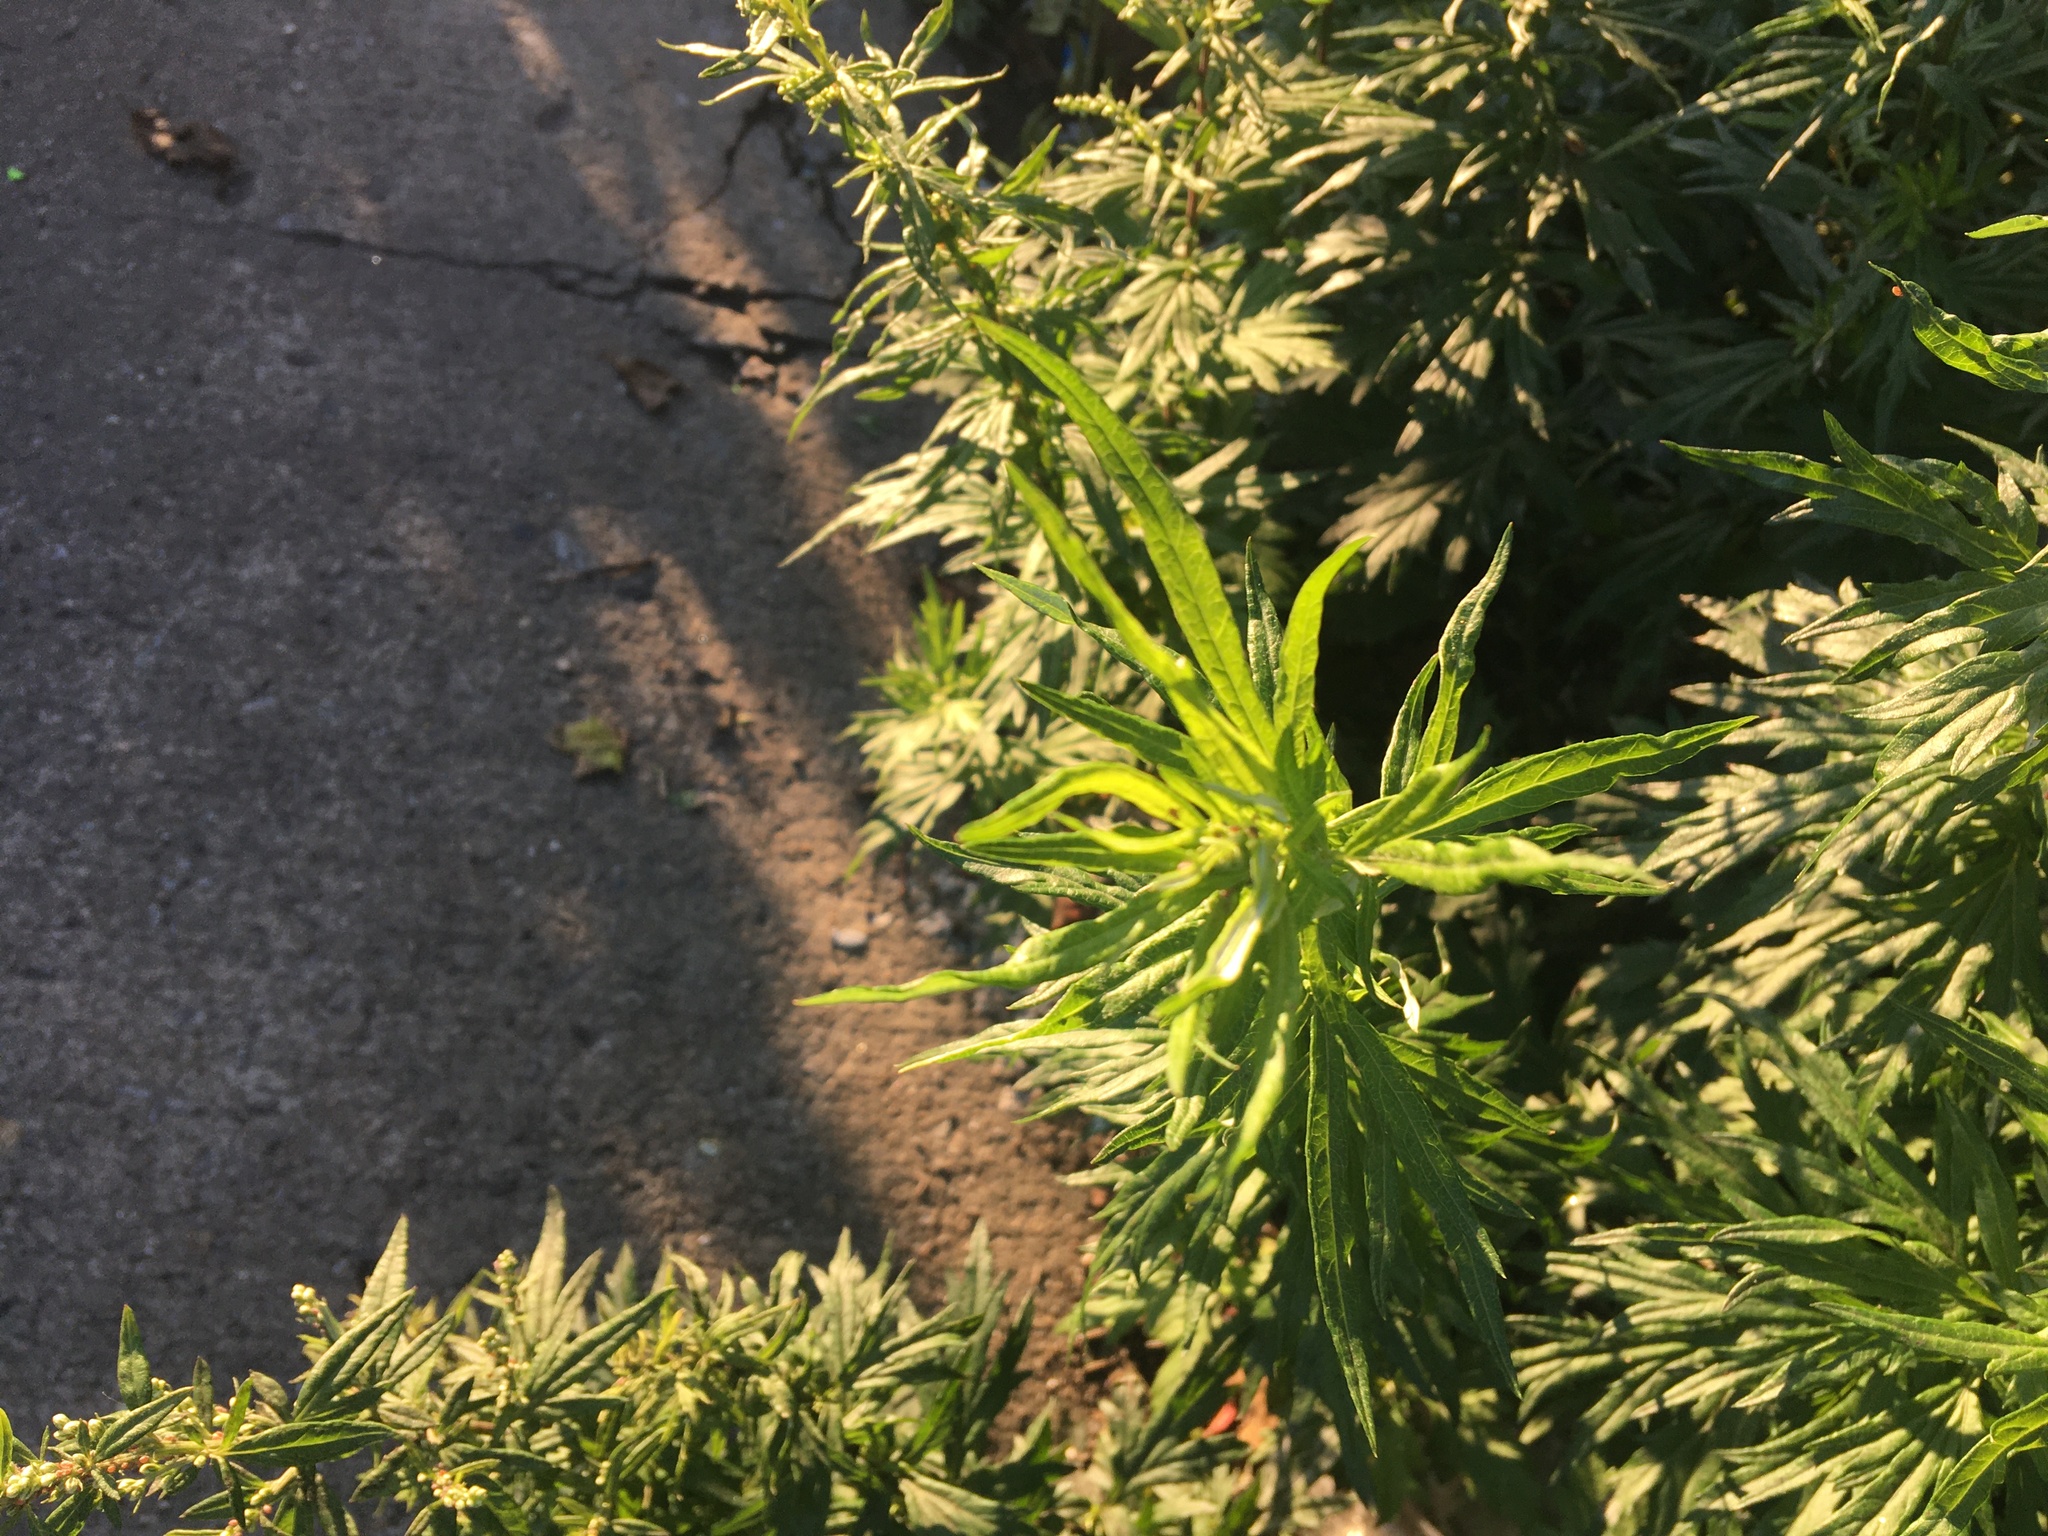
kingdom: Plantae
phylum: Tracheophyta
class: Magnoliopsida
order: Asterales
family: Asteraceae
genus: Artemisia
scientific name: Artemisia vulgaris
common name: Mugwort
